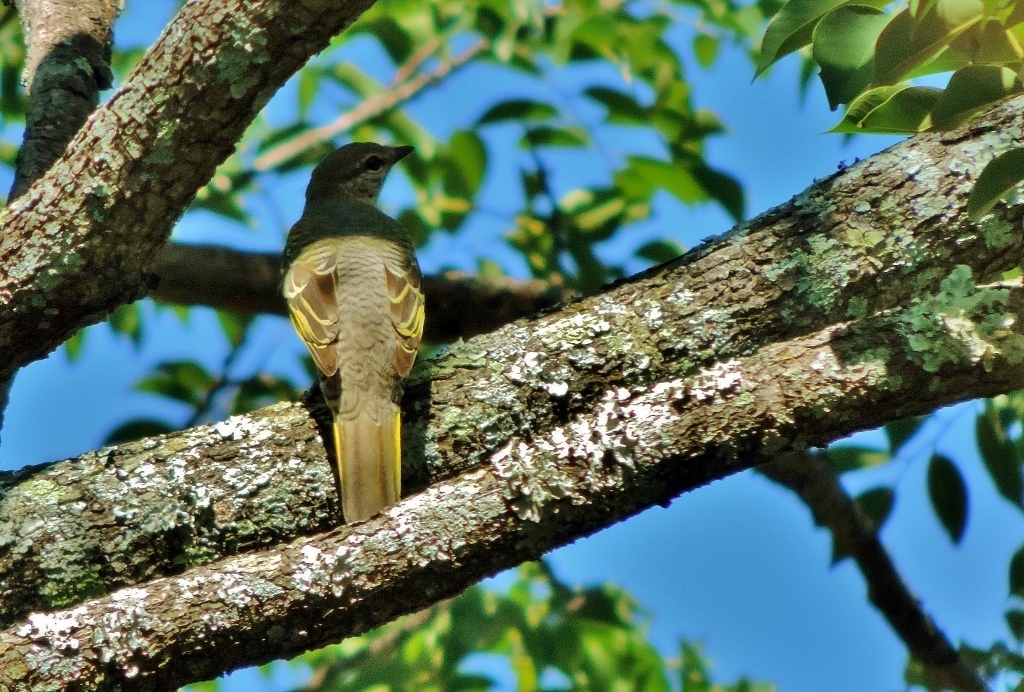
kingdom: Animalia
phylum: Chordata
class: Aves
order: Passeriformes
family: Campephagidae
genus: Campephaga
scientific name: Campephaga flava
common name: Black cuckooshrike
